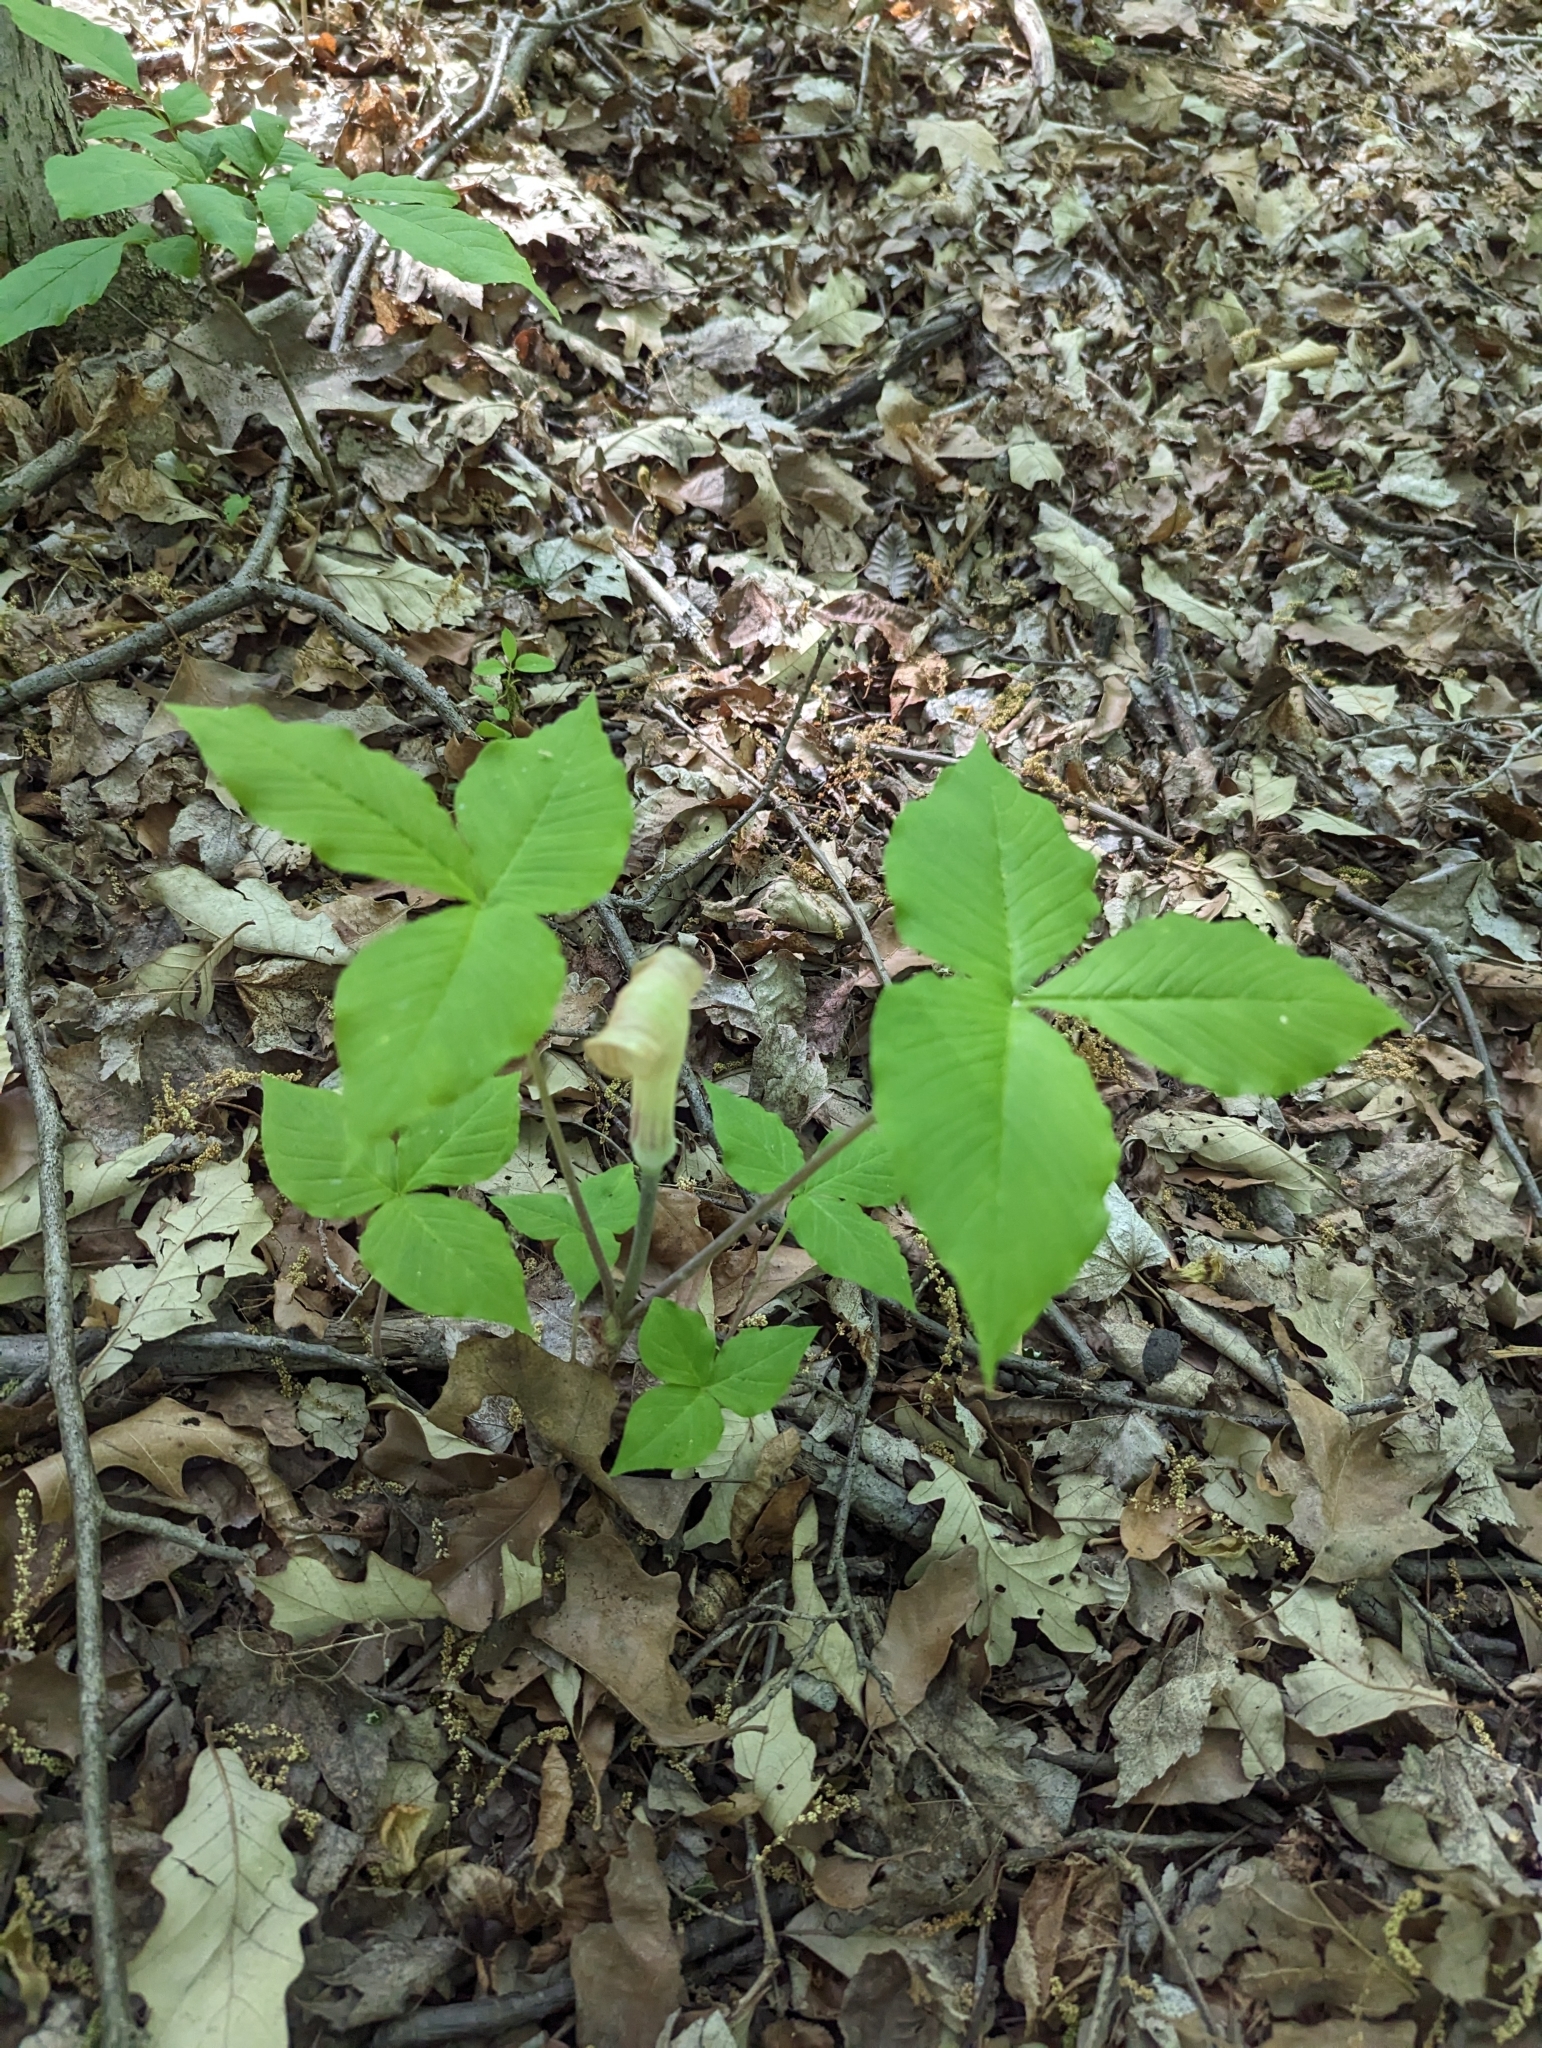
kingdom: Plantae
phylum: Tracheophyta
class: Liliopsida
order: Alismatales
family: Araceae
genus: Arisaema
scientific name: Arisaema triphyllum
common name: Jack-in-the-pulpit
